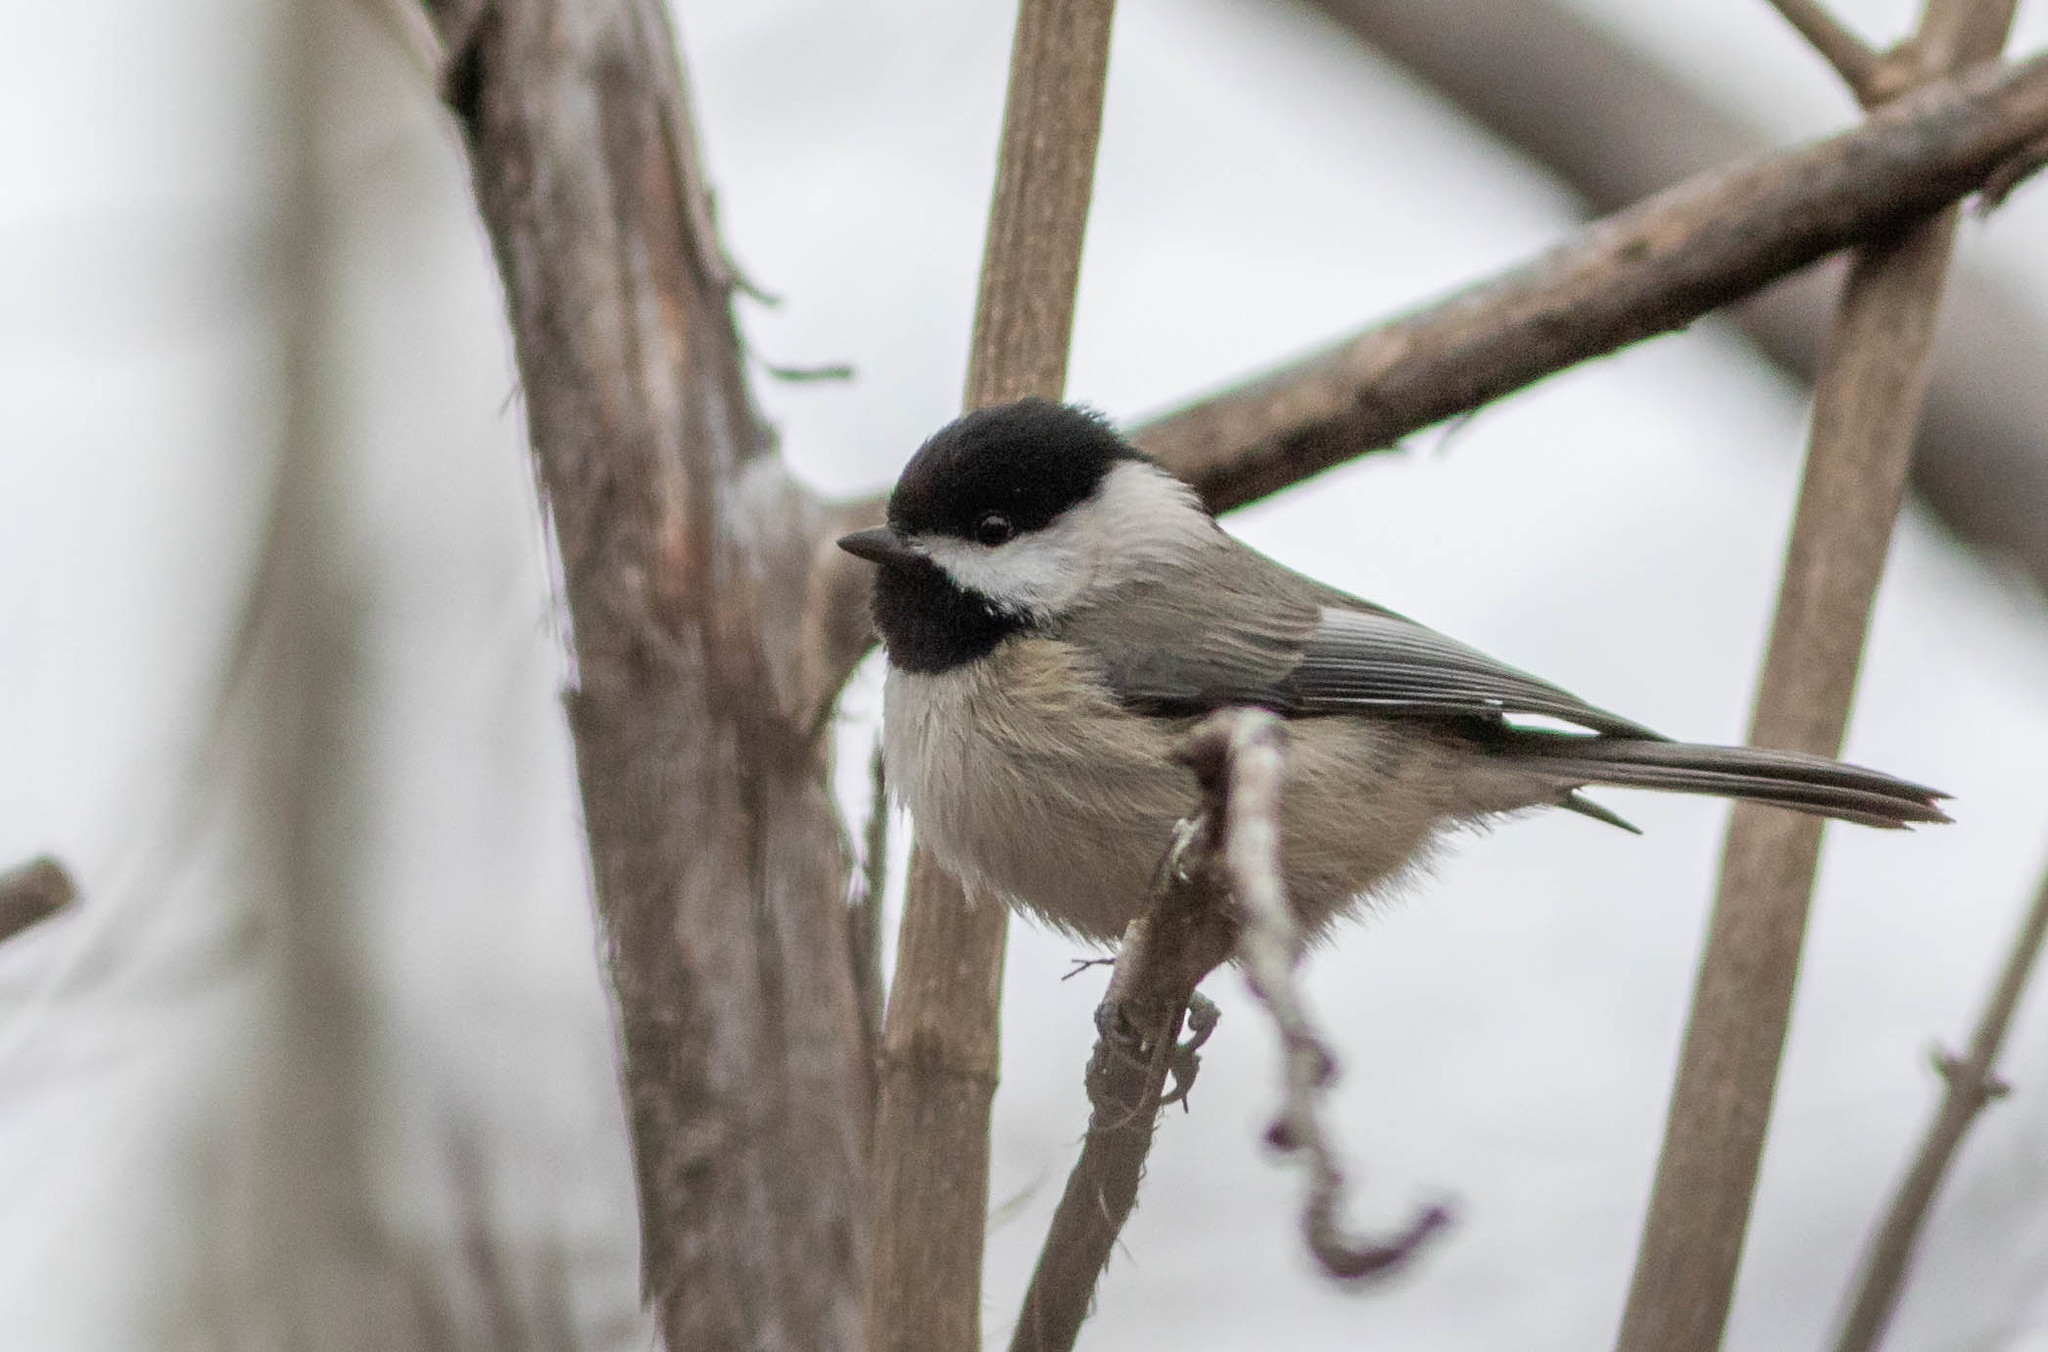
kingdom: Animalia
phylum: Chordata
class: Aves
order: Passeriformes
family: Paridae
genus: Poecile
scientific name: Poecile carolinensis
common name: Carolina chickadee
